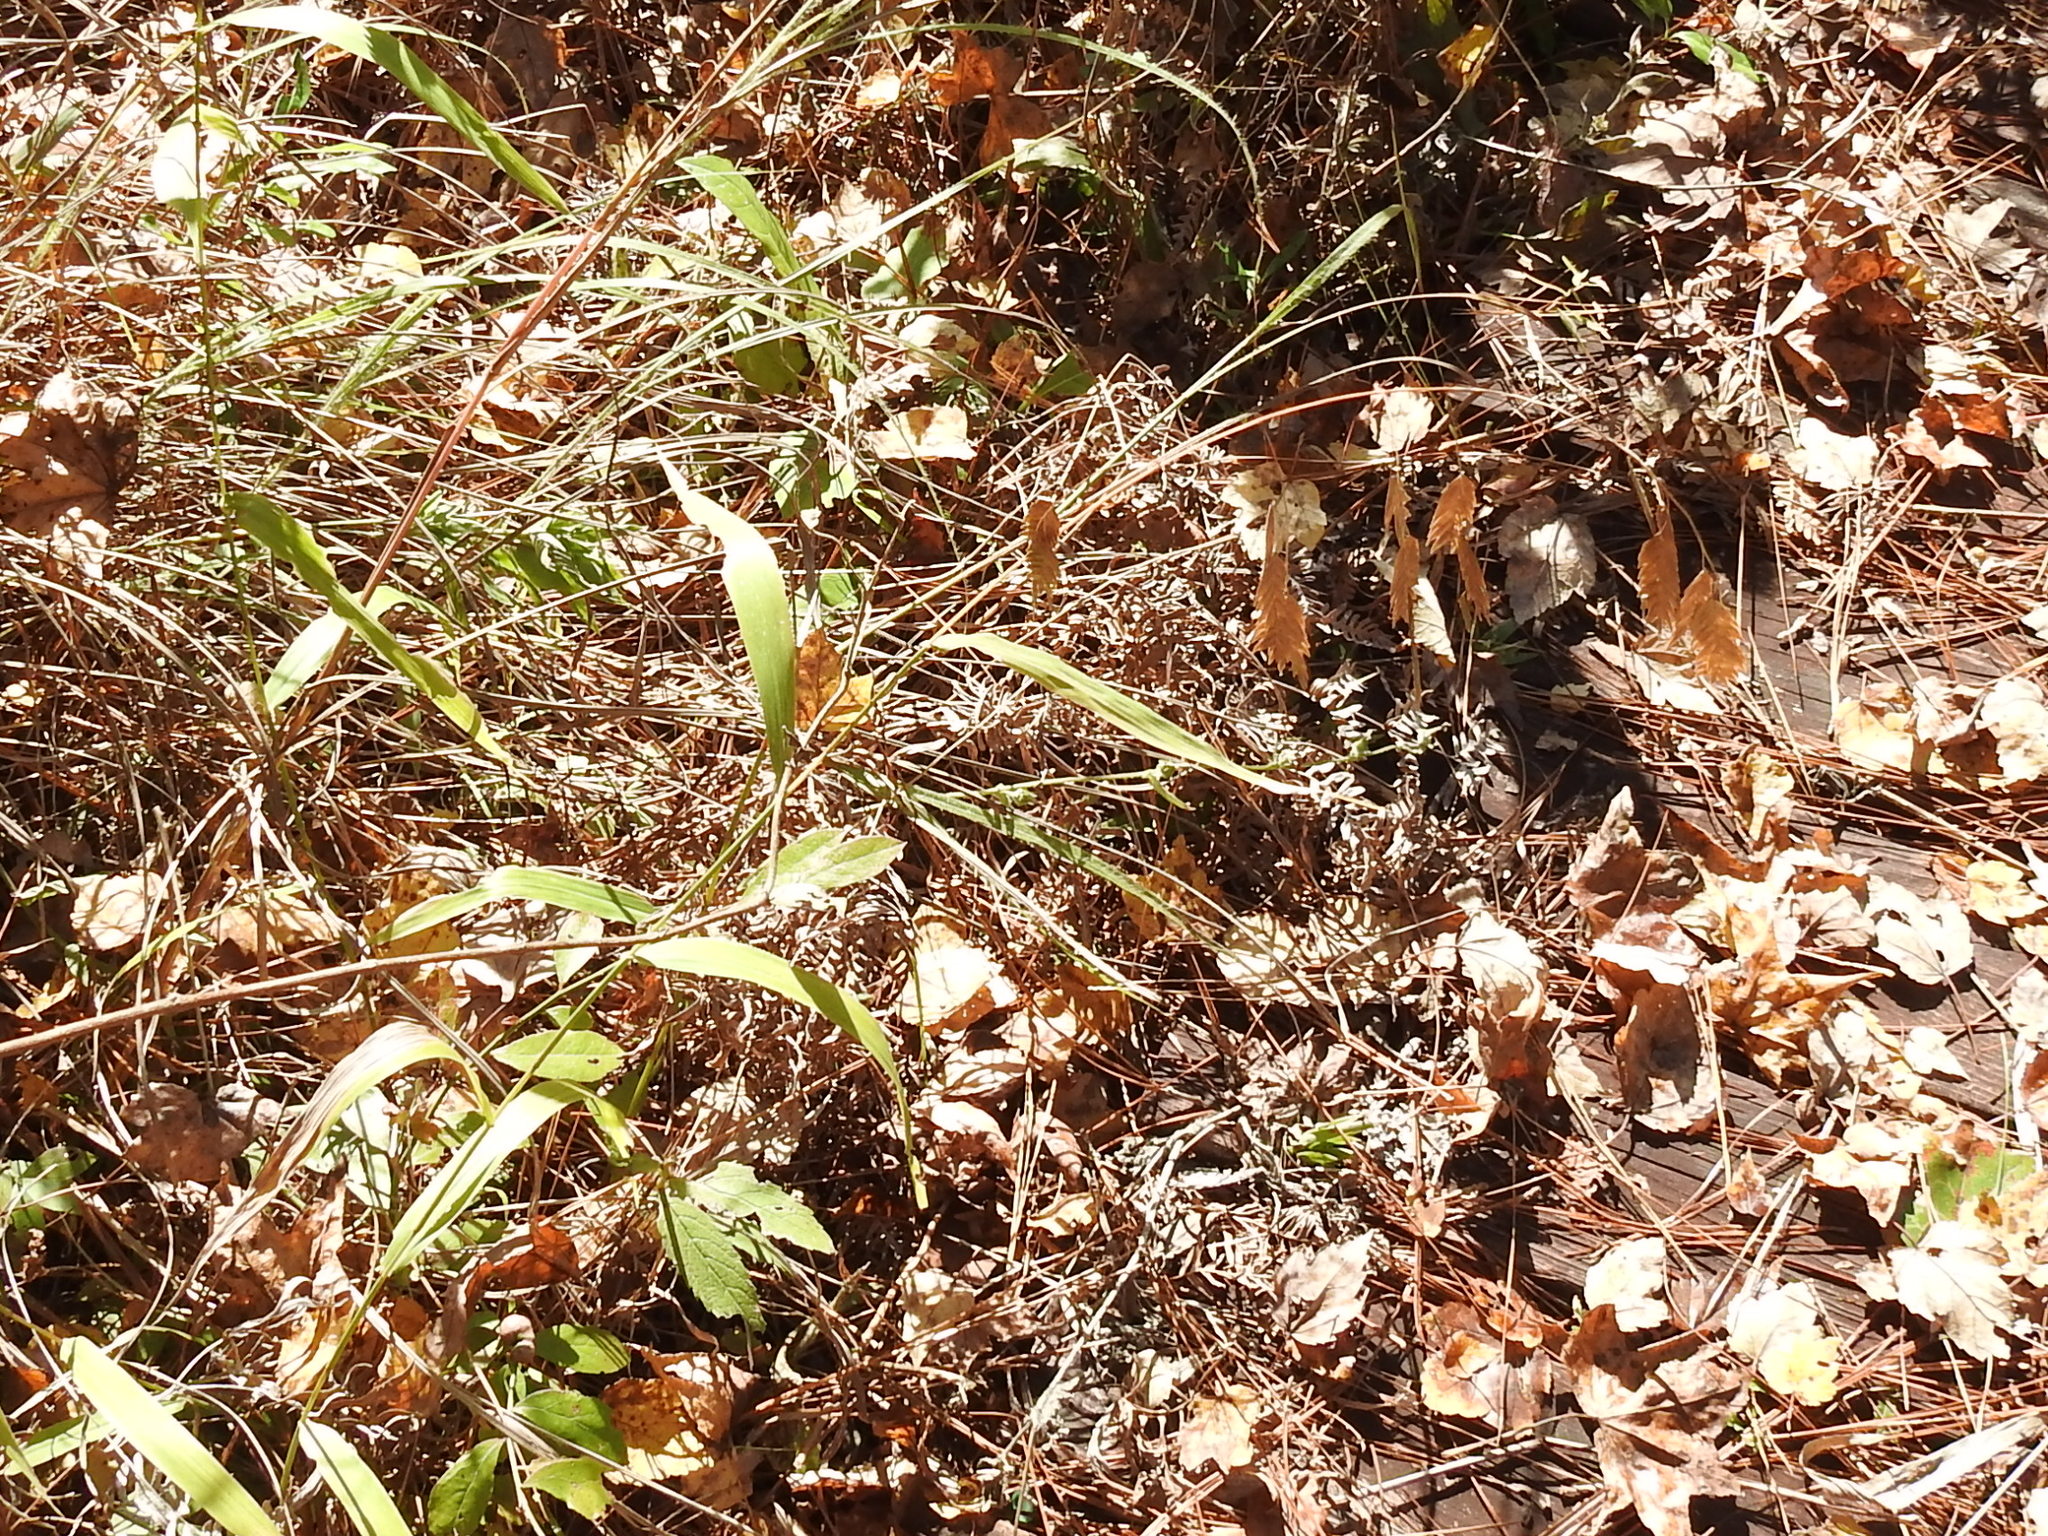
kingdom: Plantae
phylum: Tracheophyta
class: Liliopsida
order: Poales
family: Poaceae
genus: Chasmanthium
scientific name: Chasmanthium latifolium
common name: Broad-leaved chasmanthium
